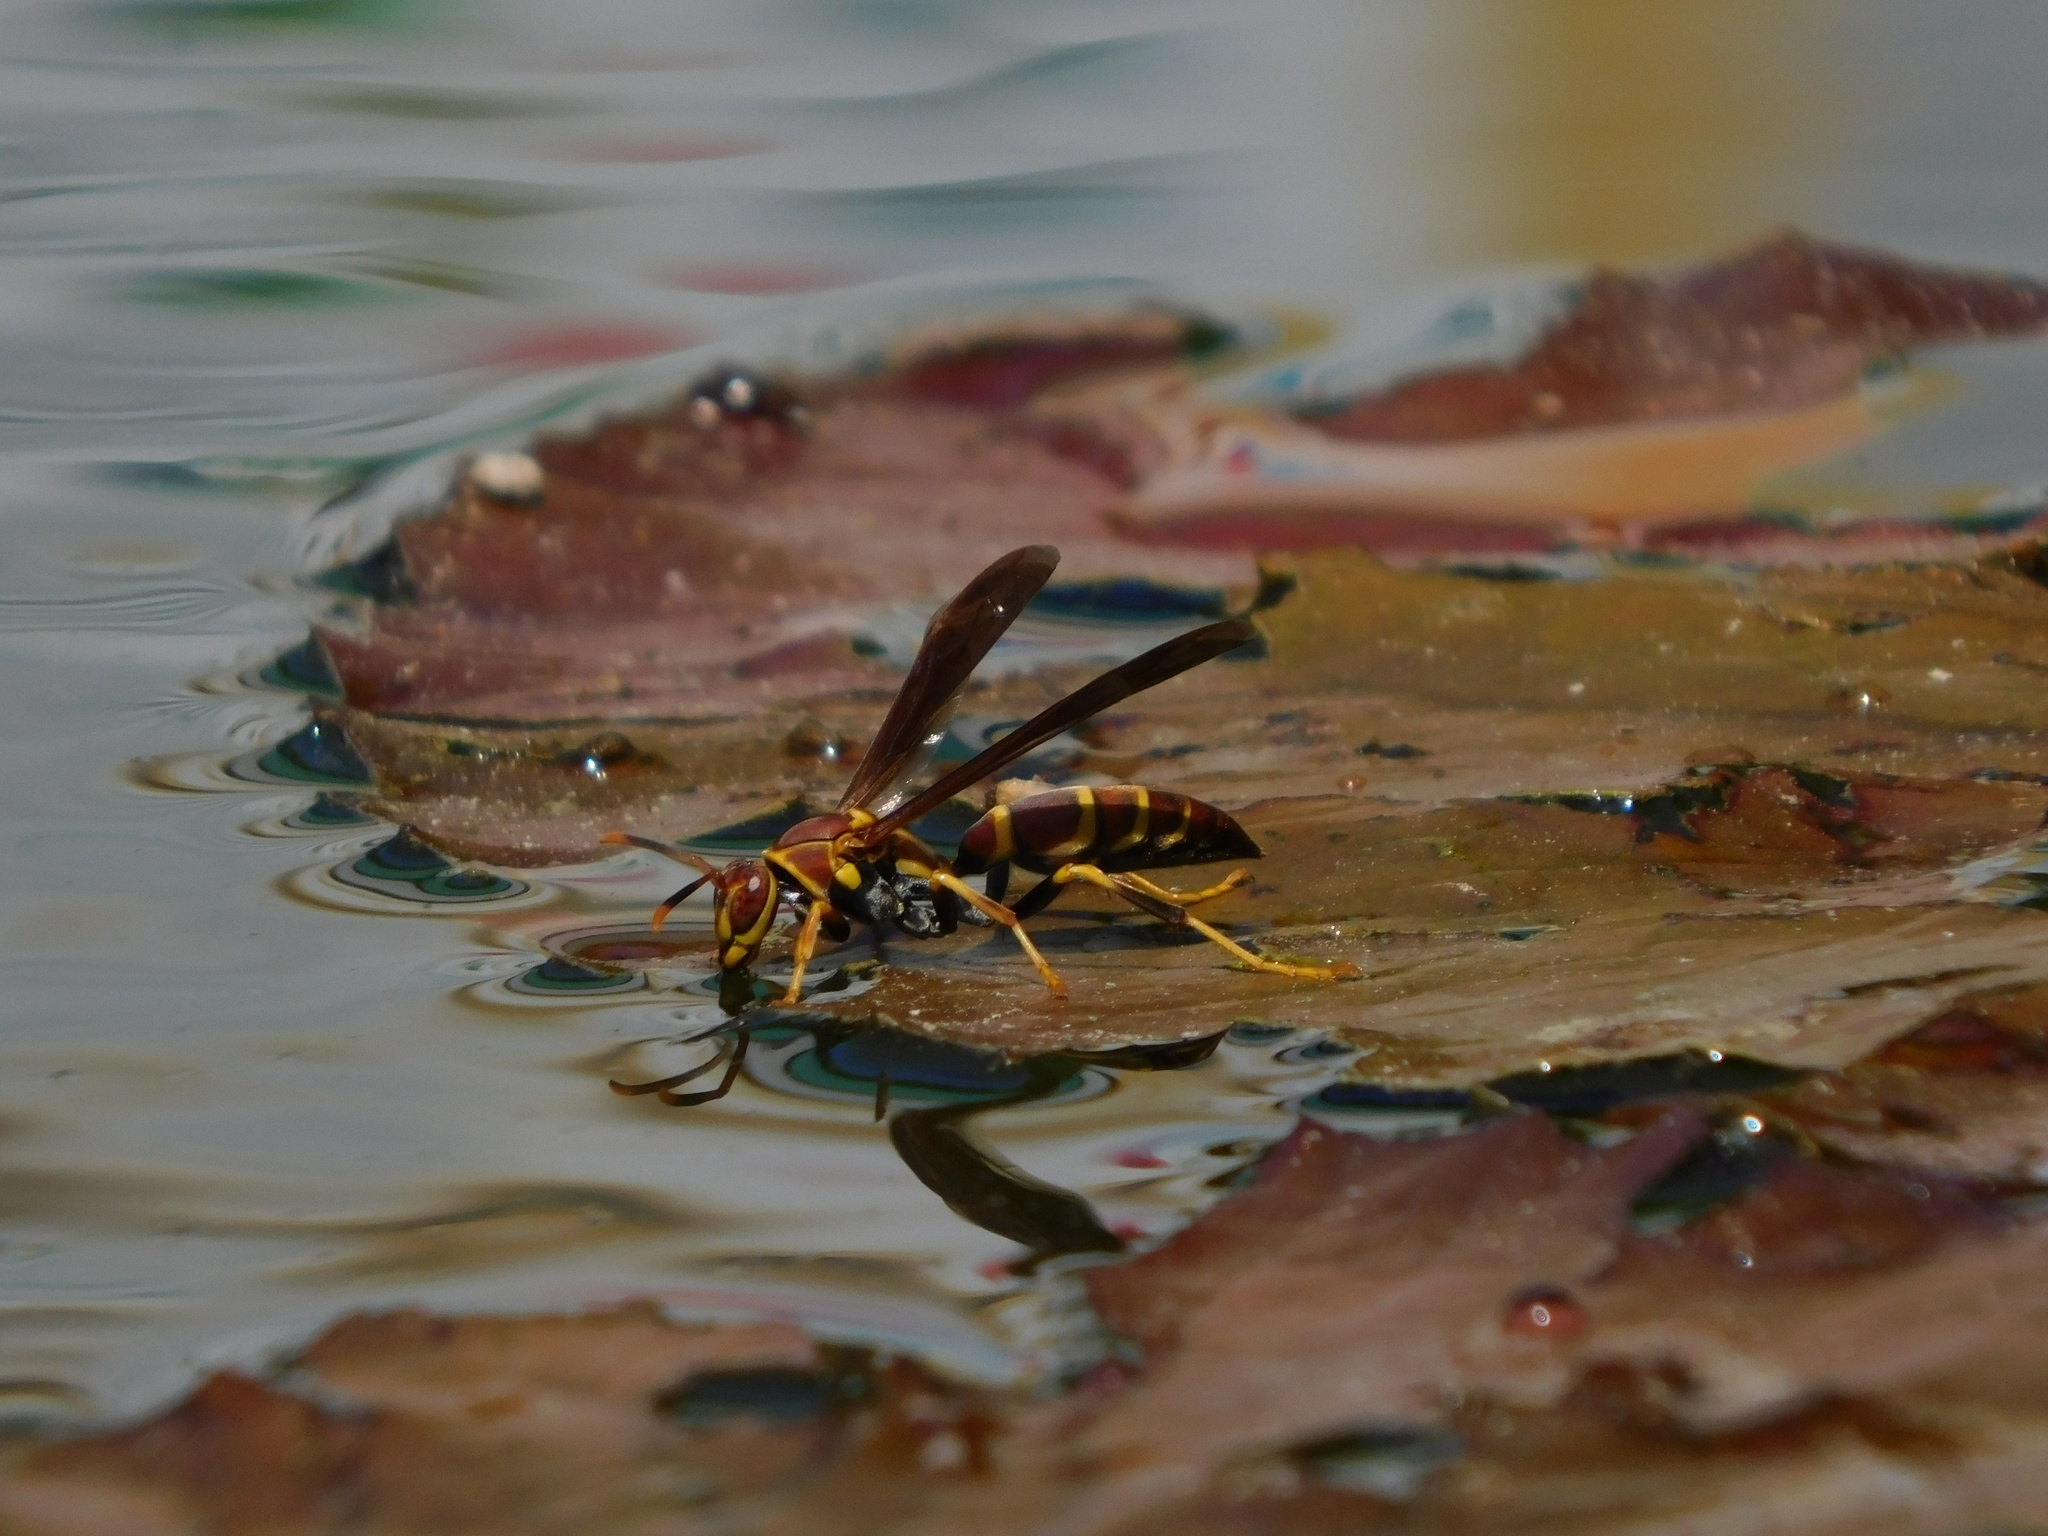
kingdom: Animalia
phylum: Arthropoda
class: Insecta
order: Hymenoptera
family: Eumenidae
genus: Polistes
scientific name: Polistes instabilis
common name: Unstable paper wasp
